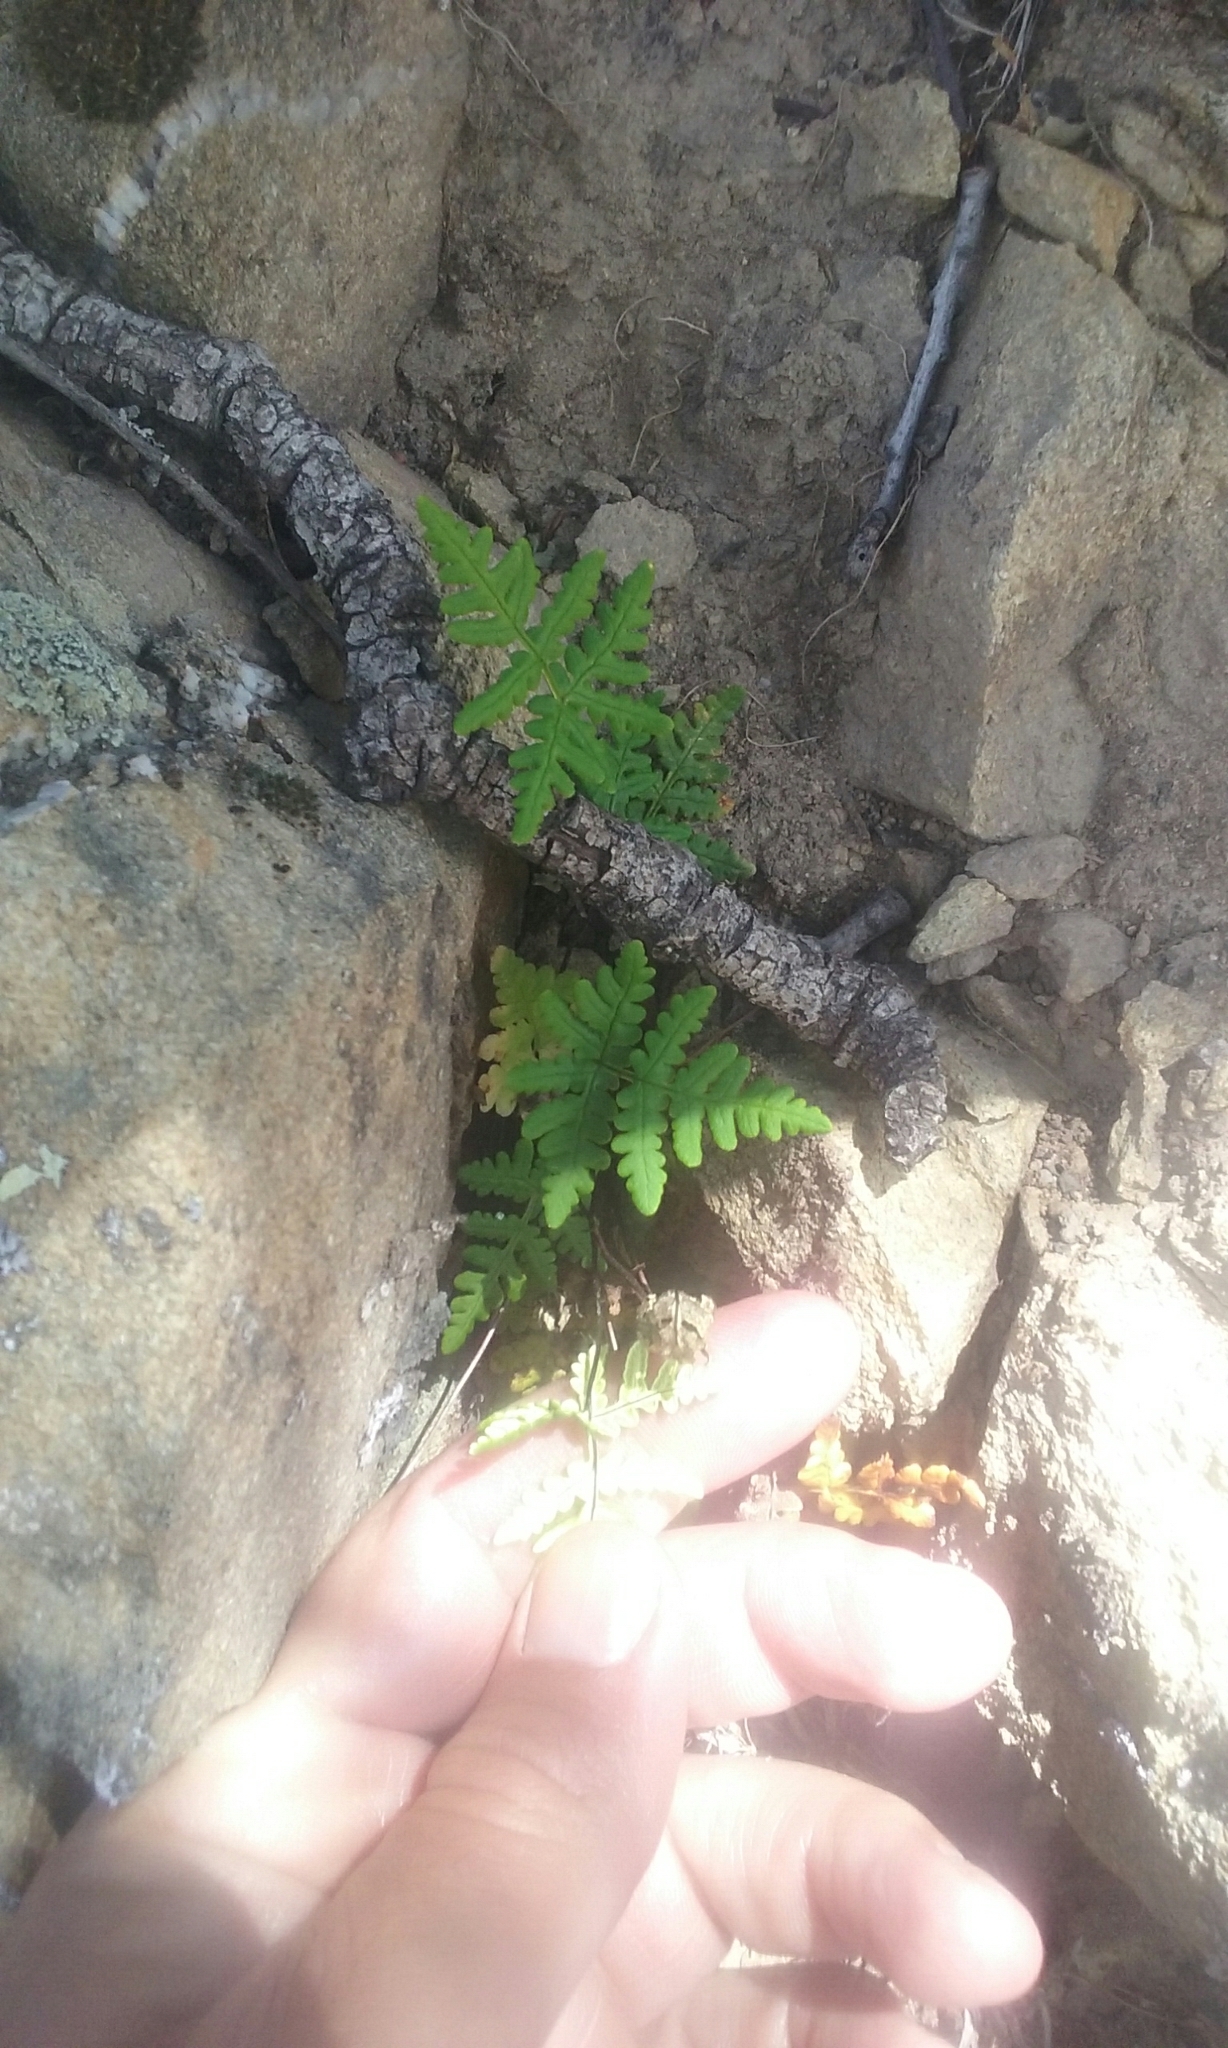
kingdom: Plantae
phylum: Tracheophyta
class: Polypodiopsida
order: Polypodiales
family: Pteridaceae
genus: Pentagramma
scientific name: Pentagramma triangularis
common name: Gold fern
